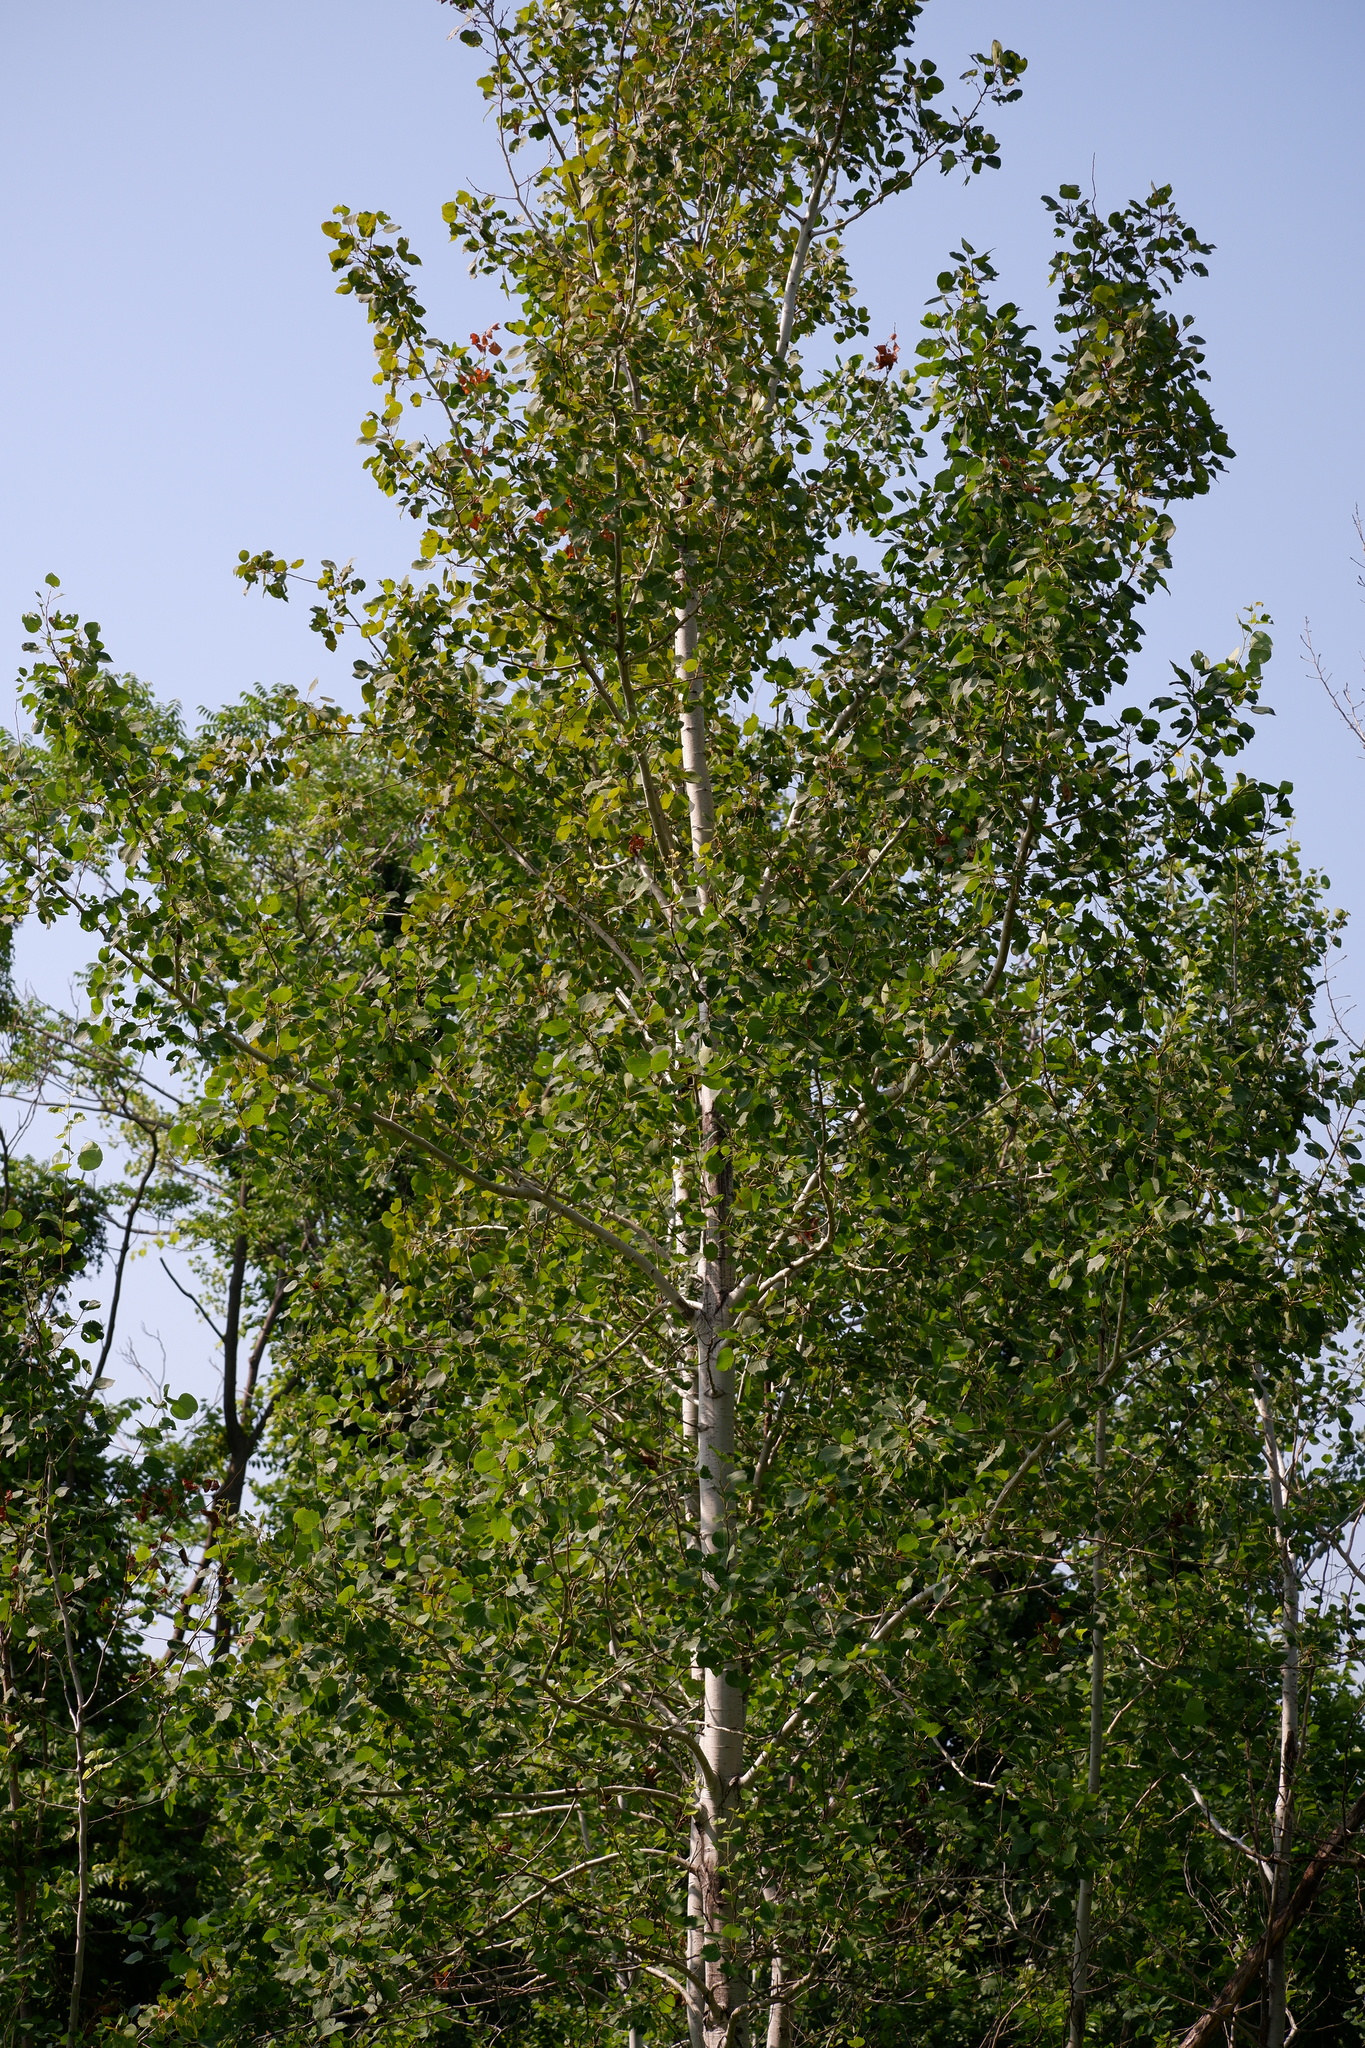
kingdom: Plantae
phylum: Tracheophyta
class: Magnoliopsida
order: Malpighiales
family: Salicaceae
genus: Populus
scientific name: Populus tremuloides
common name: Quaking aspen
